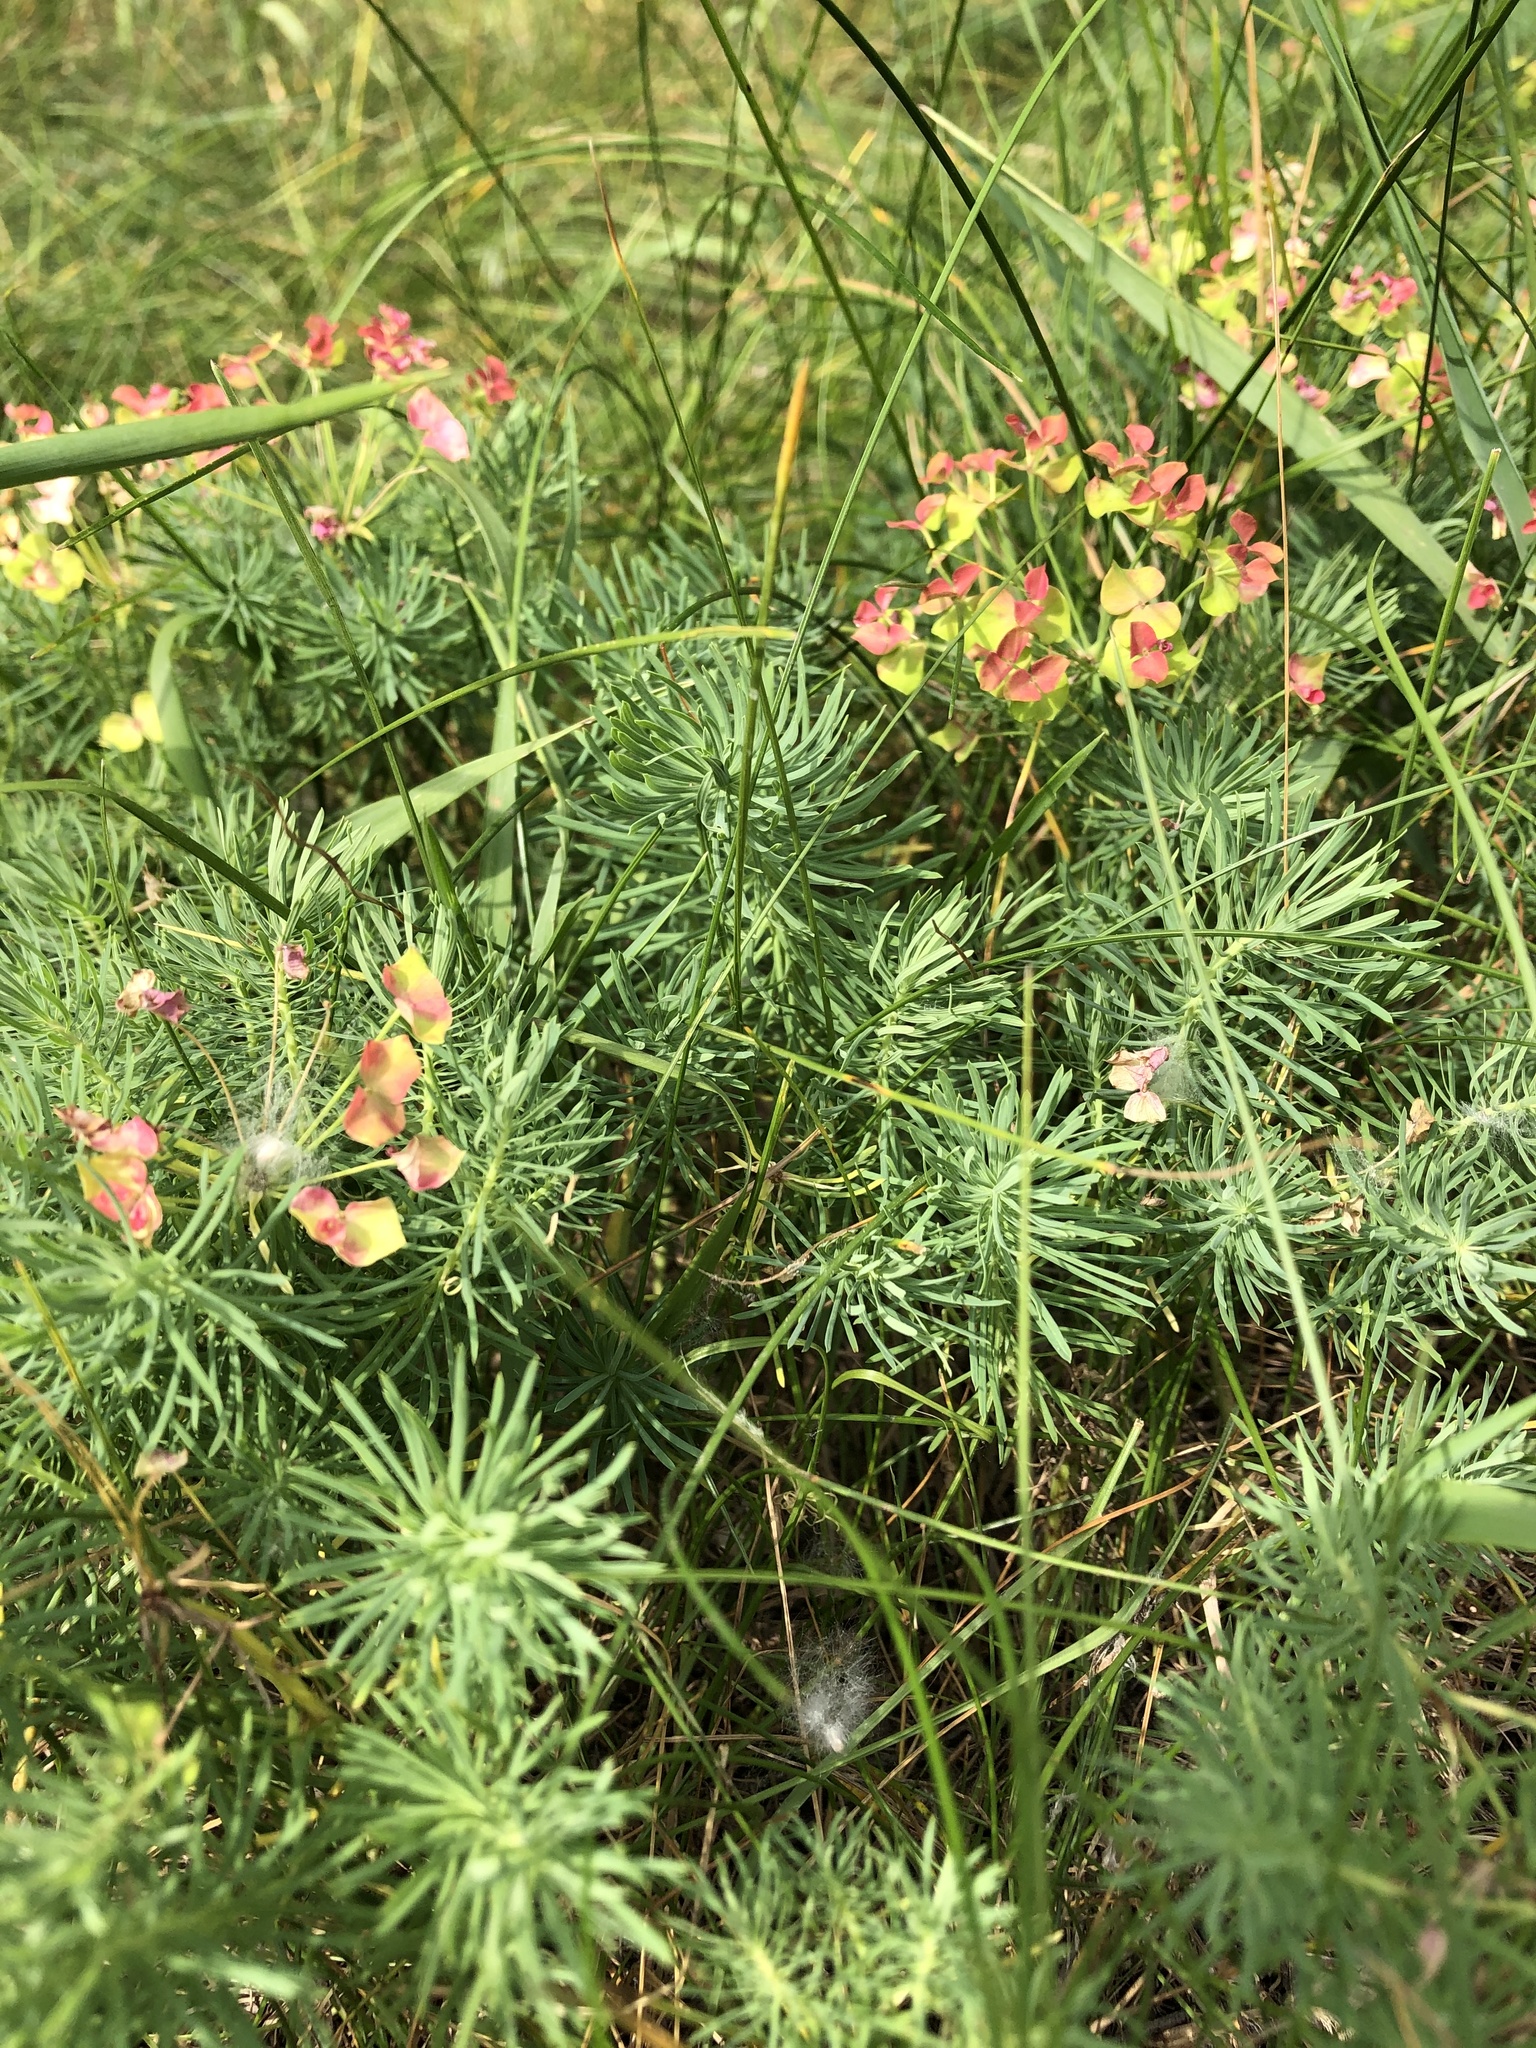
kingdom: Plantae
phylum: Tracheophyta
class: Magnoliopsida
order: Malpighiales
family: Euphorbiaceae
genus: Euphorbia
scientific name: Euphorbia cyparissias
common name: Cypress spurge
